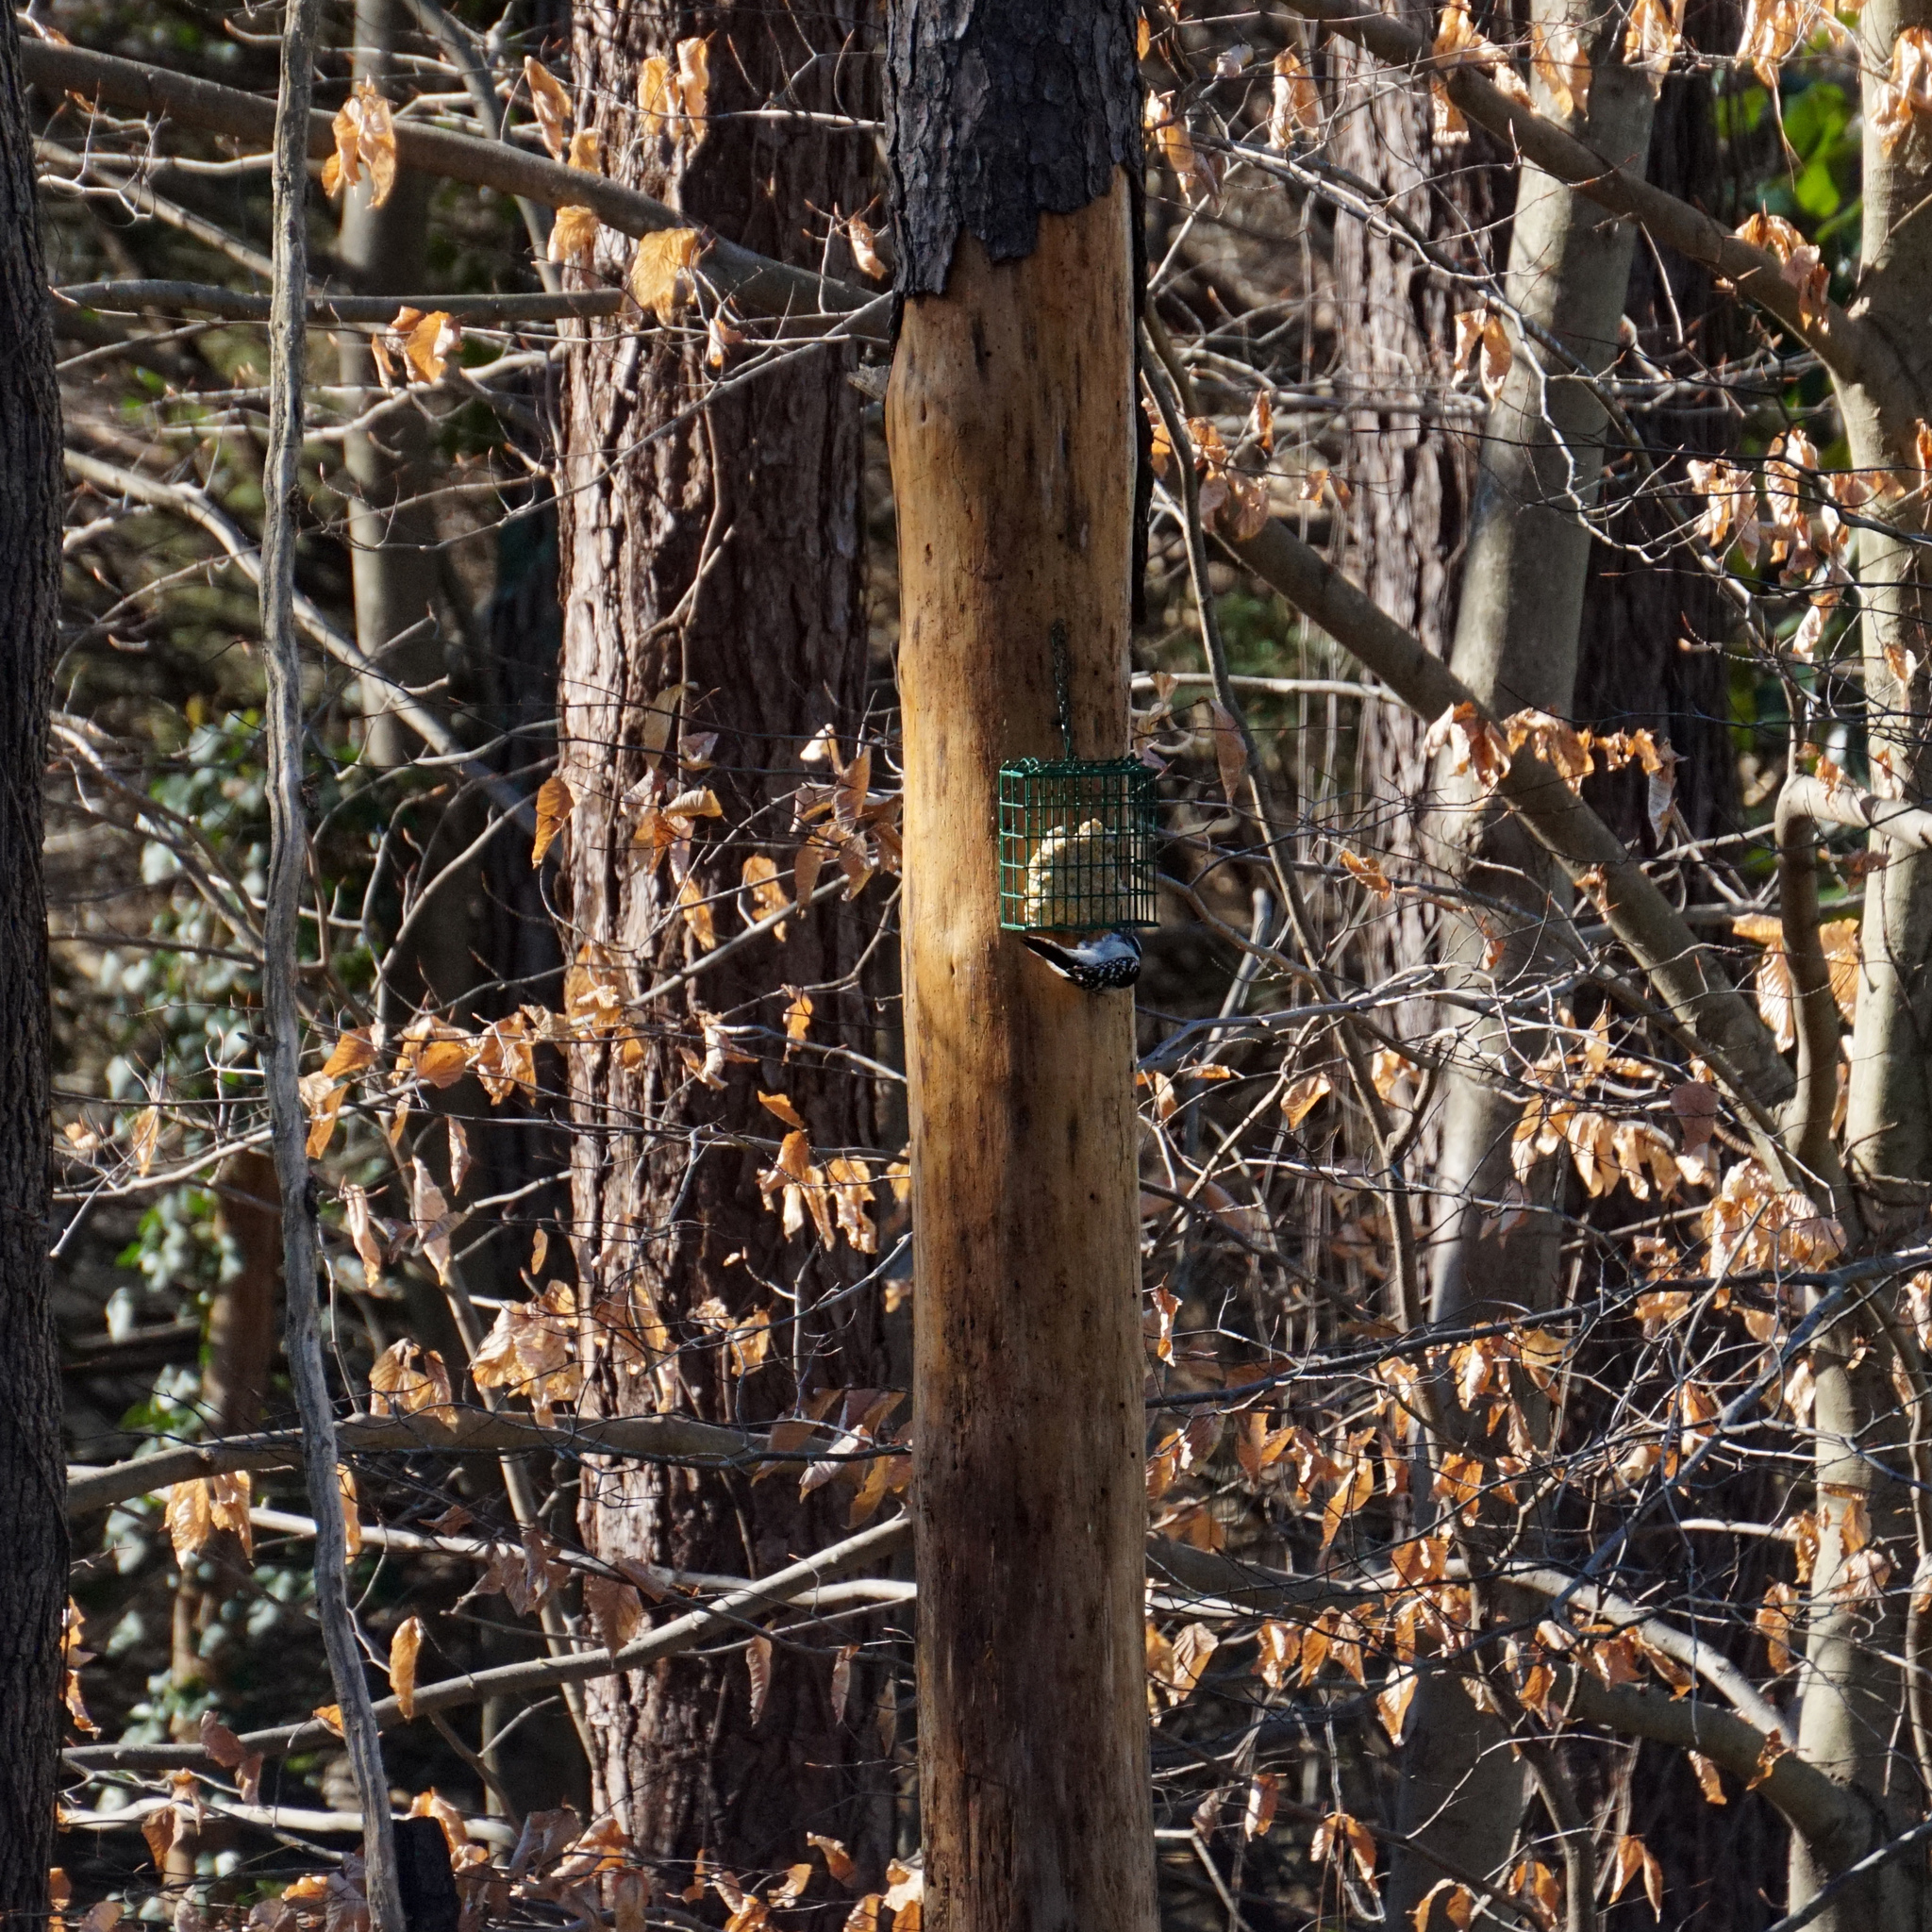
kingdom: Animalia
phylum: Chordata
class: Aves
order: Piciformes
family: Picidae
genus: Dryobates
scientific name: Dryobates pubescens
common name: Downy woodpecker
